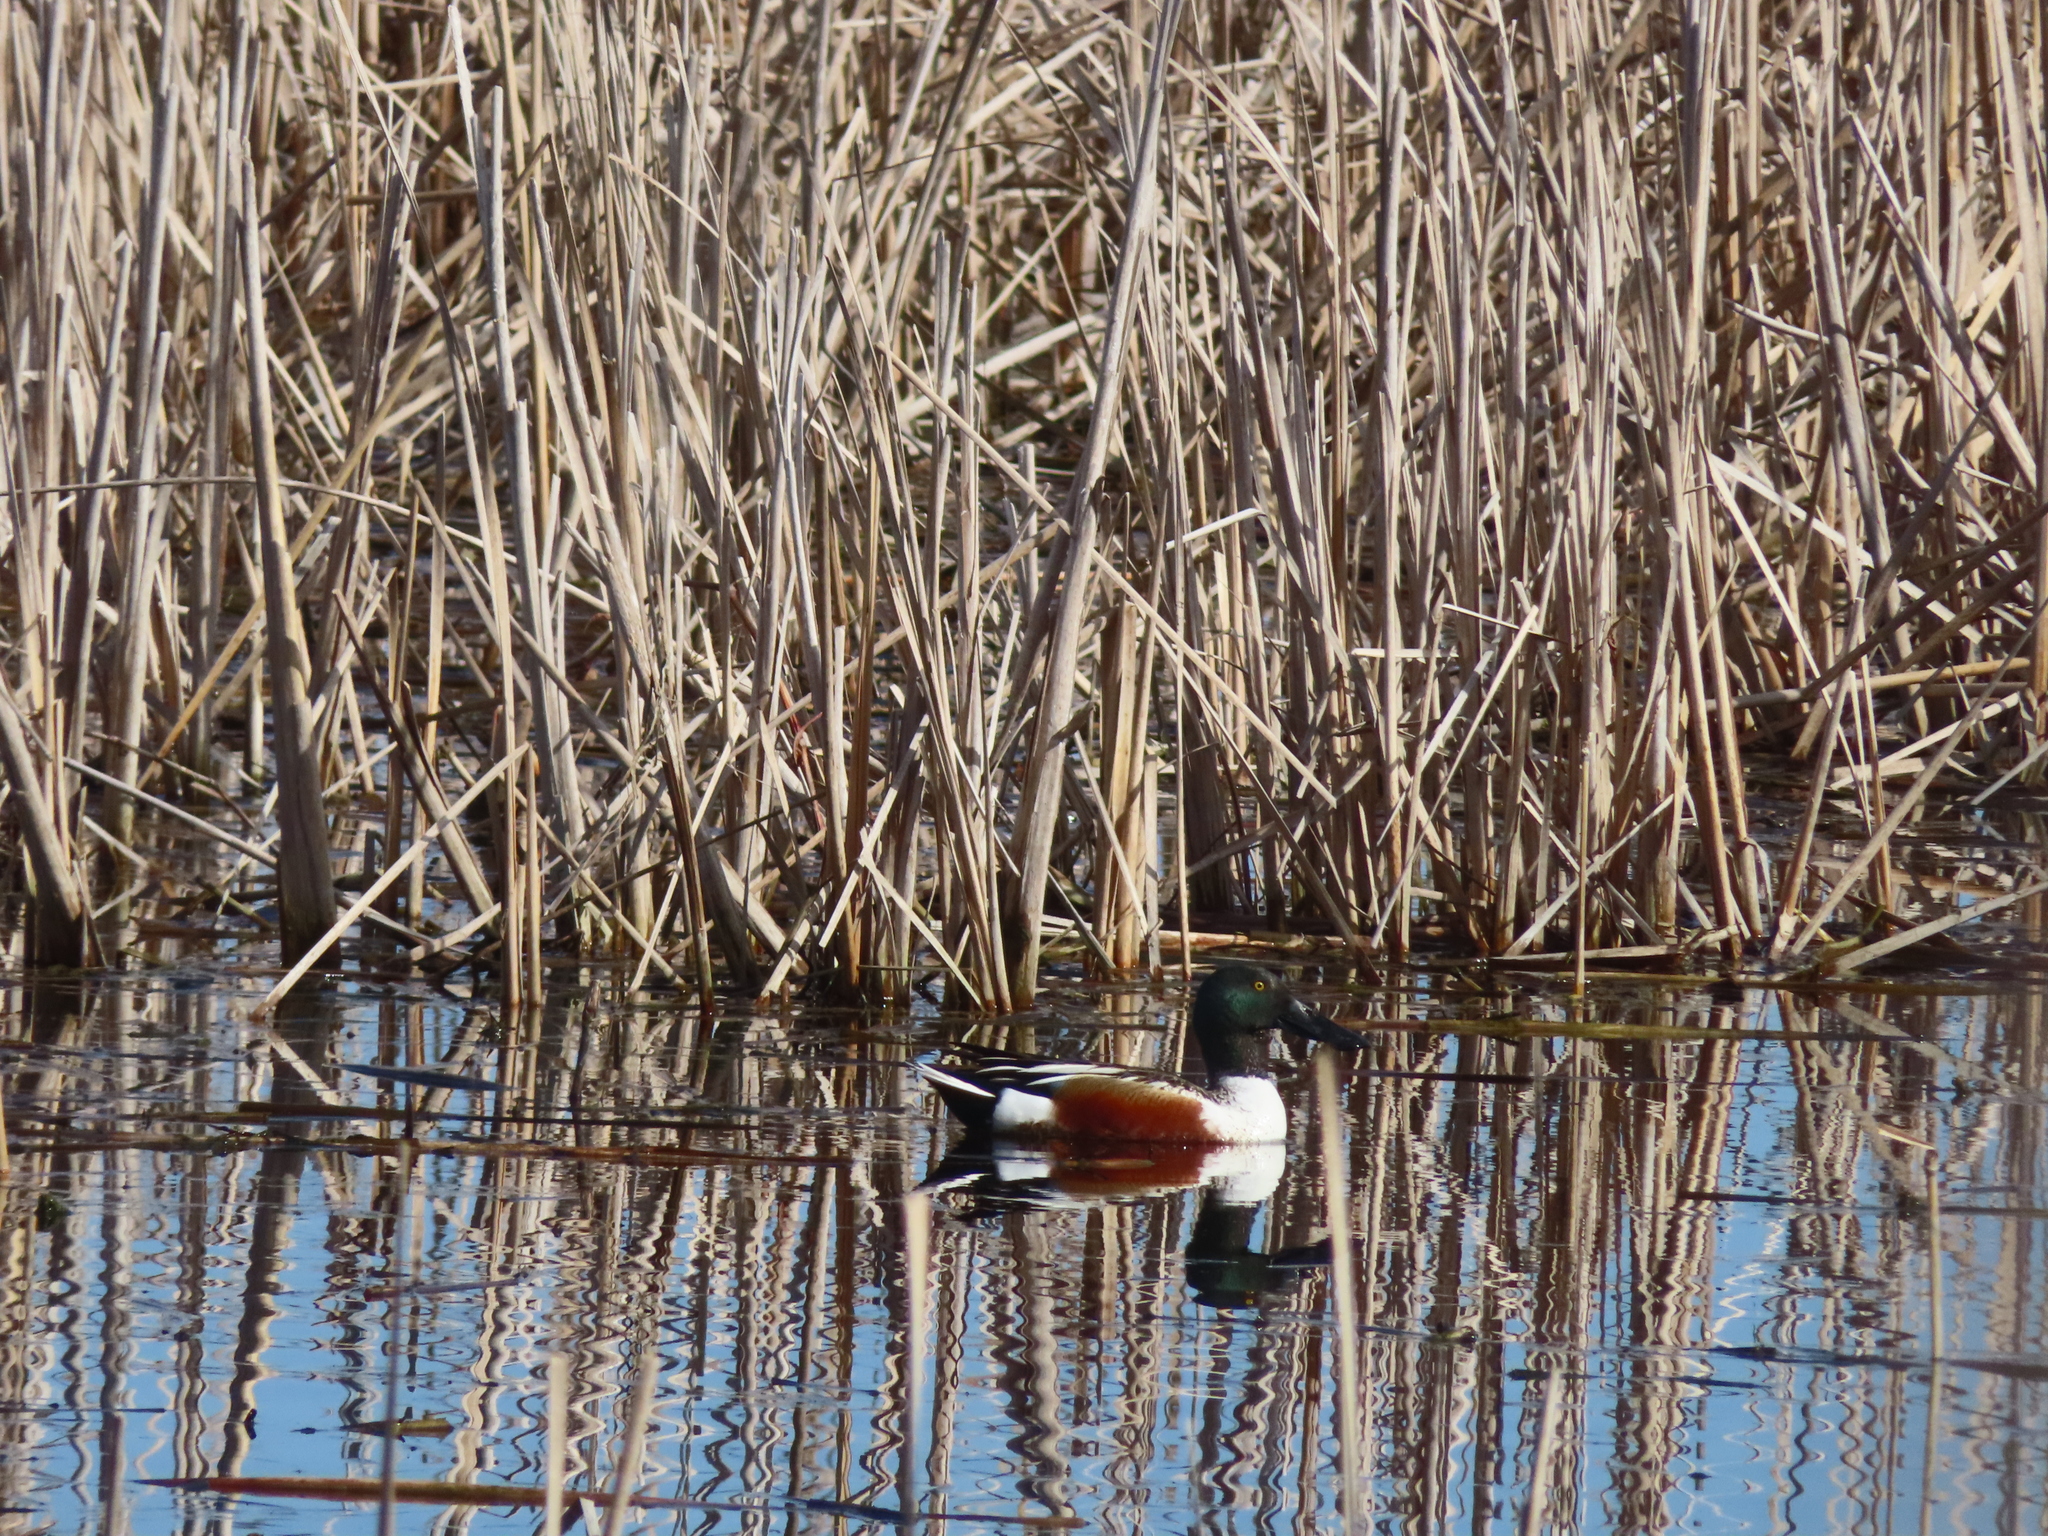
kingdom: Animalia
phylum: Chordata
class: Aves
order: Anseriformes
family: Anatidae
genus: Spatula
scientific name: Spatula clypeata
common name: Northern shoveler
